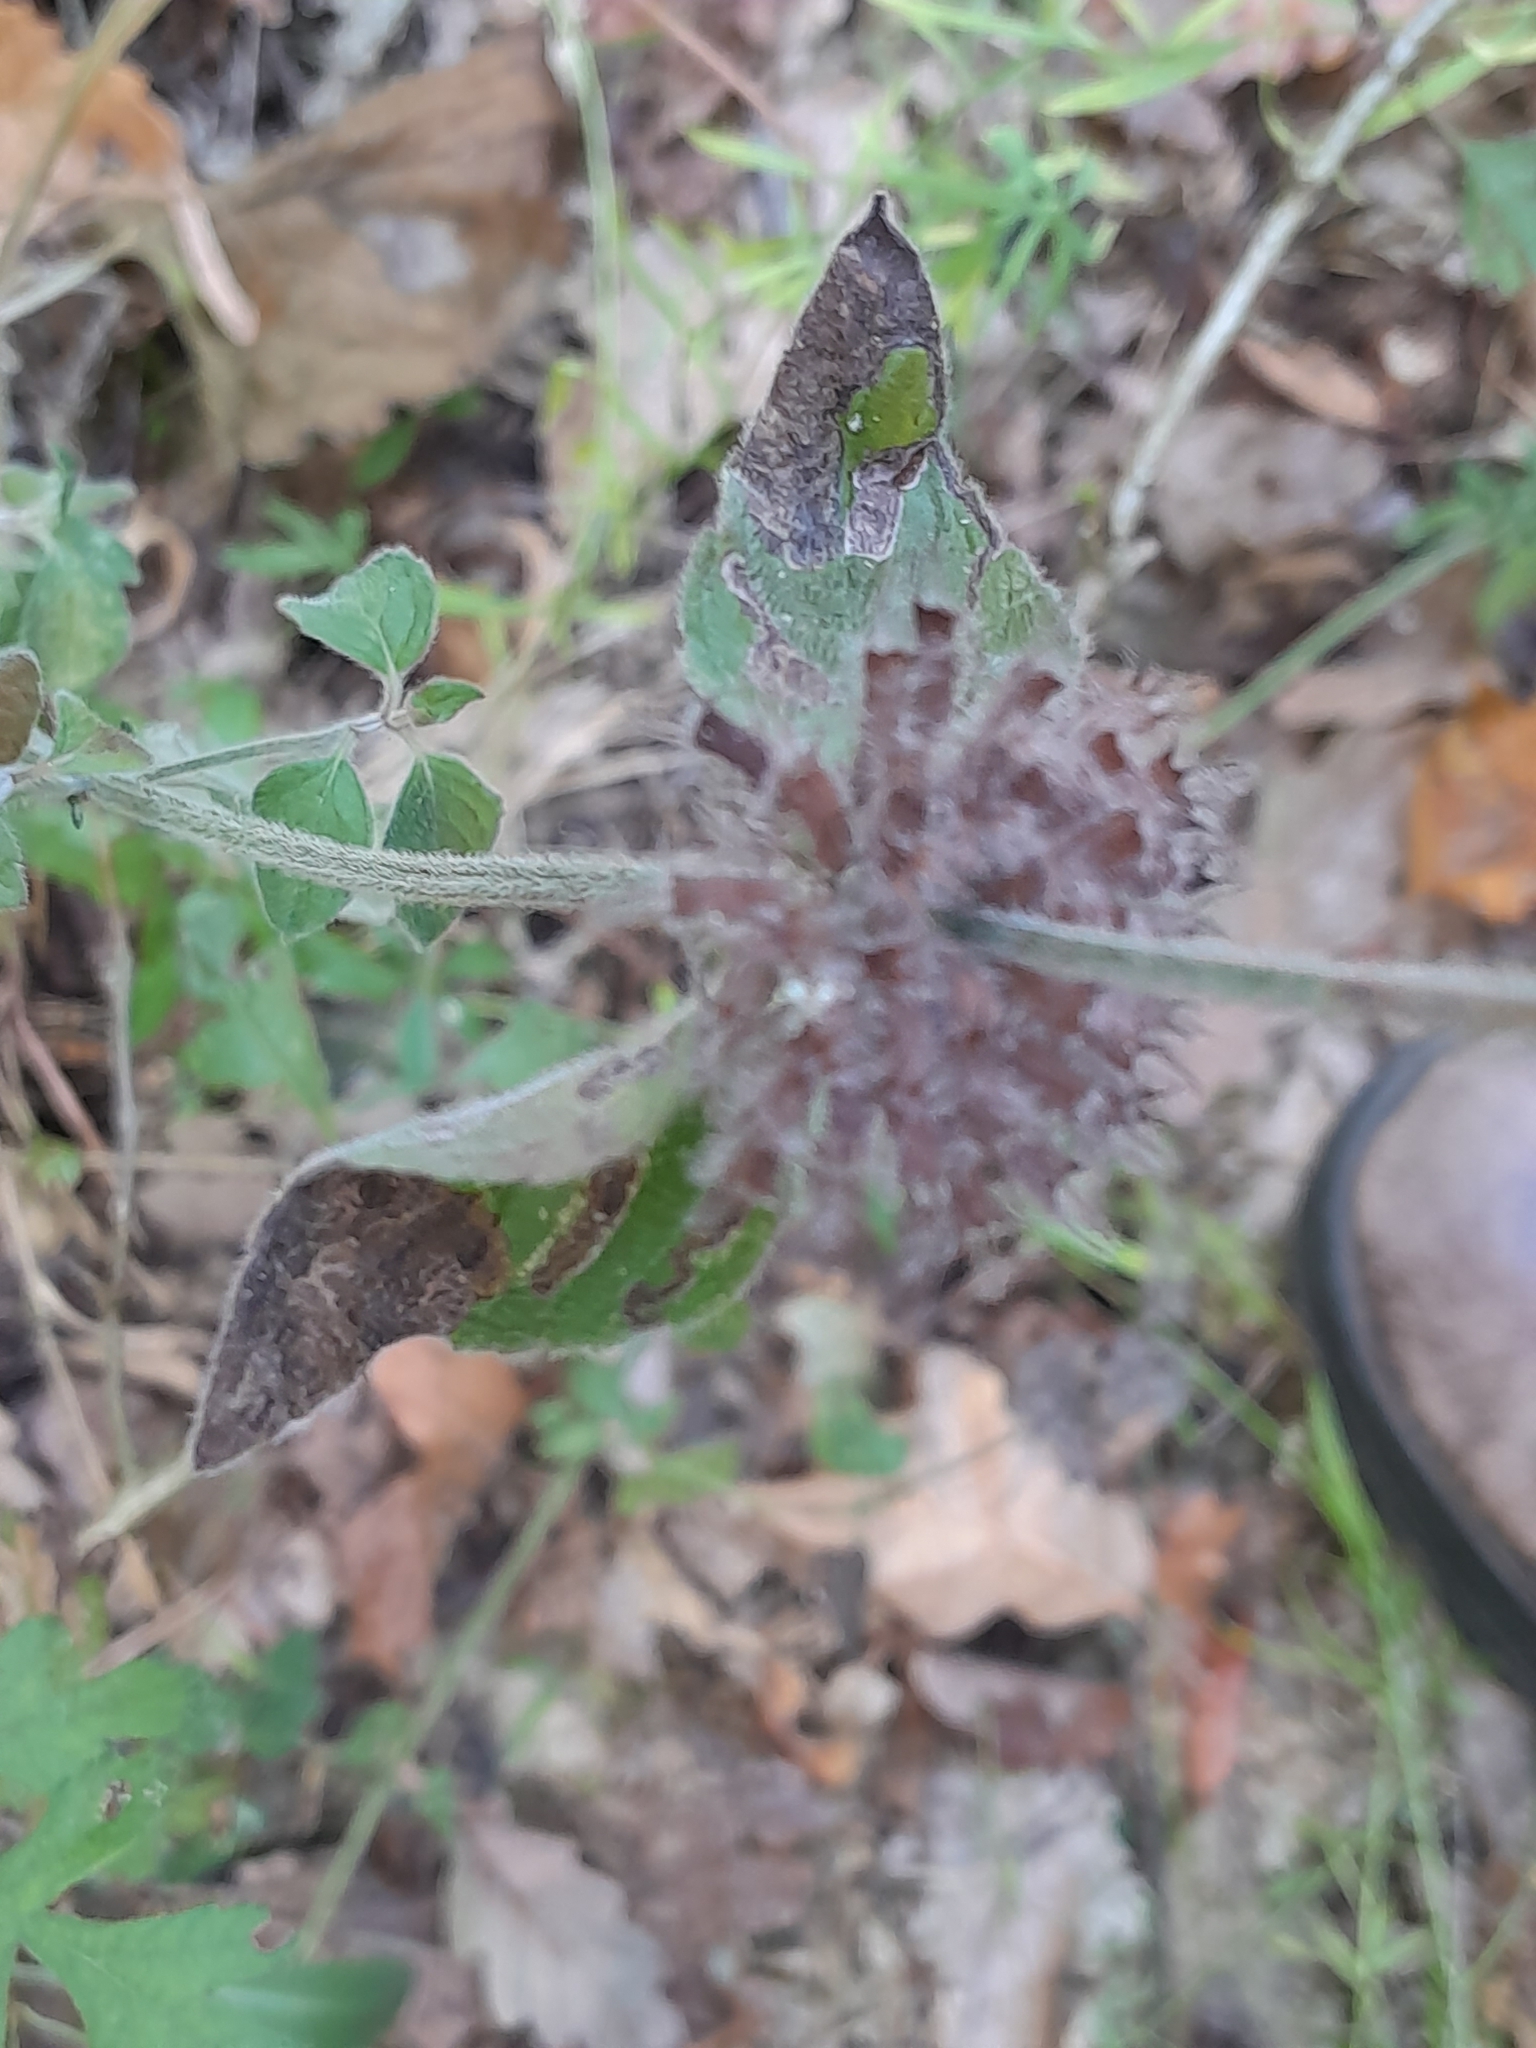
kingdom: Plantae
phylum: Tracheophyta
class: Magnoliopsida
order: Lamiales
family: Lamiaceae
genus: Clinopodium
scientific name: Clinopodium vulgare
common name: Wild basil
